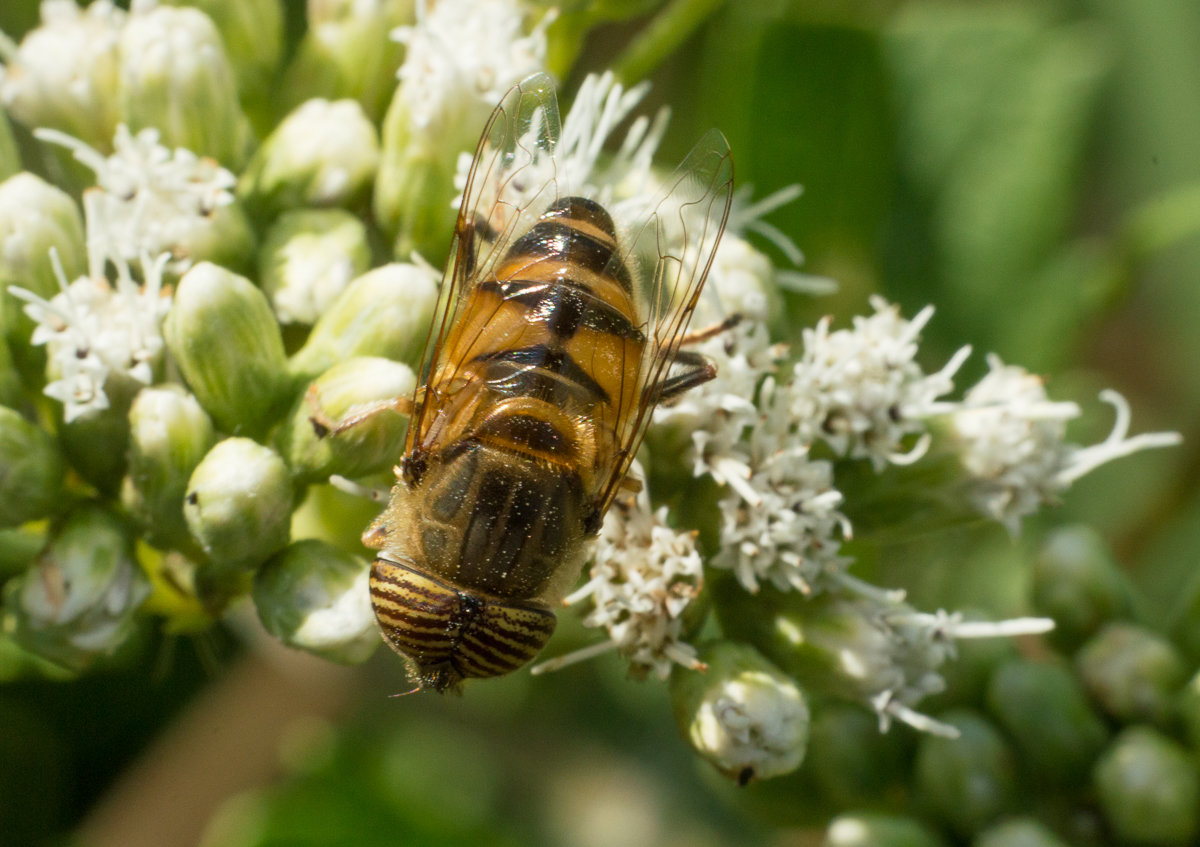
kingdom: Animalia
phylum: Arthropoda
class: Insecta
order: Diptera
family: Syrphidae
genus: Eristalinus
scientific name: Eristalinus taeniops
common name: Syrphid fly
